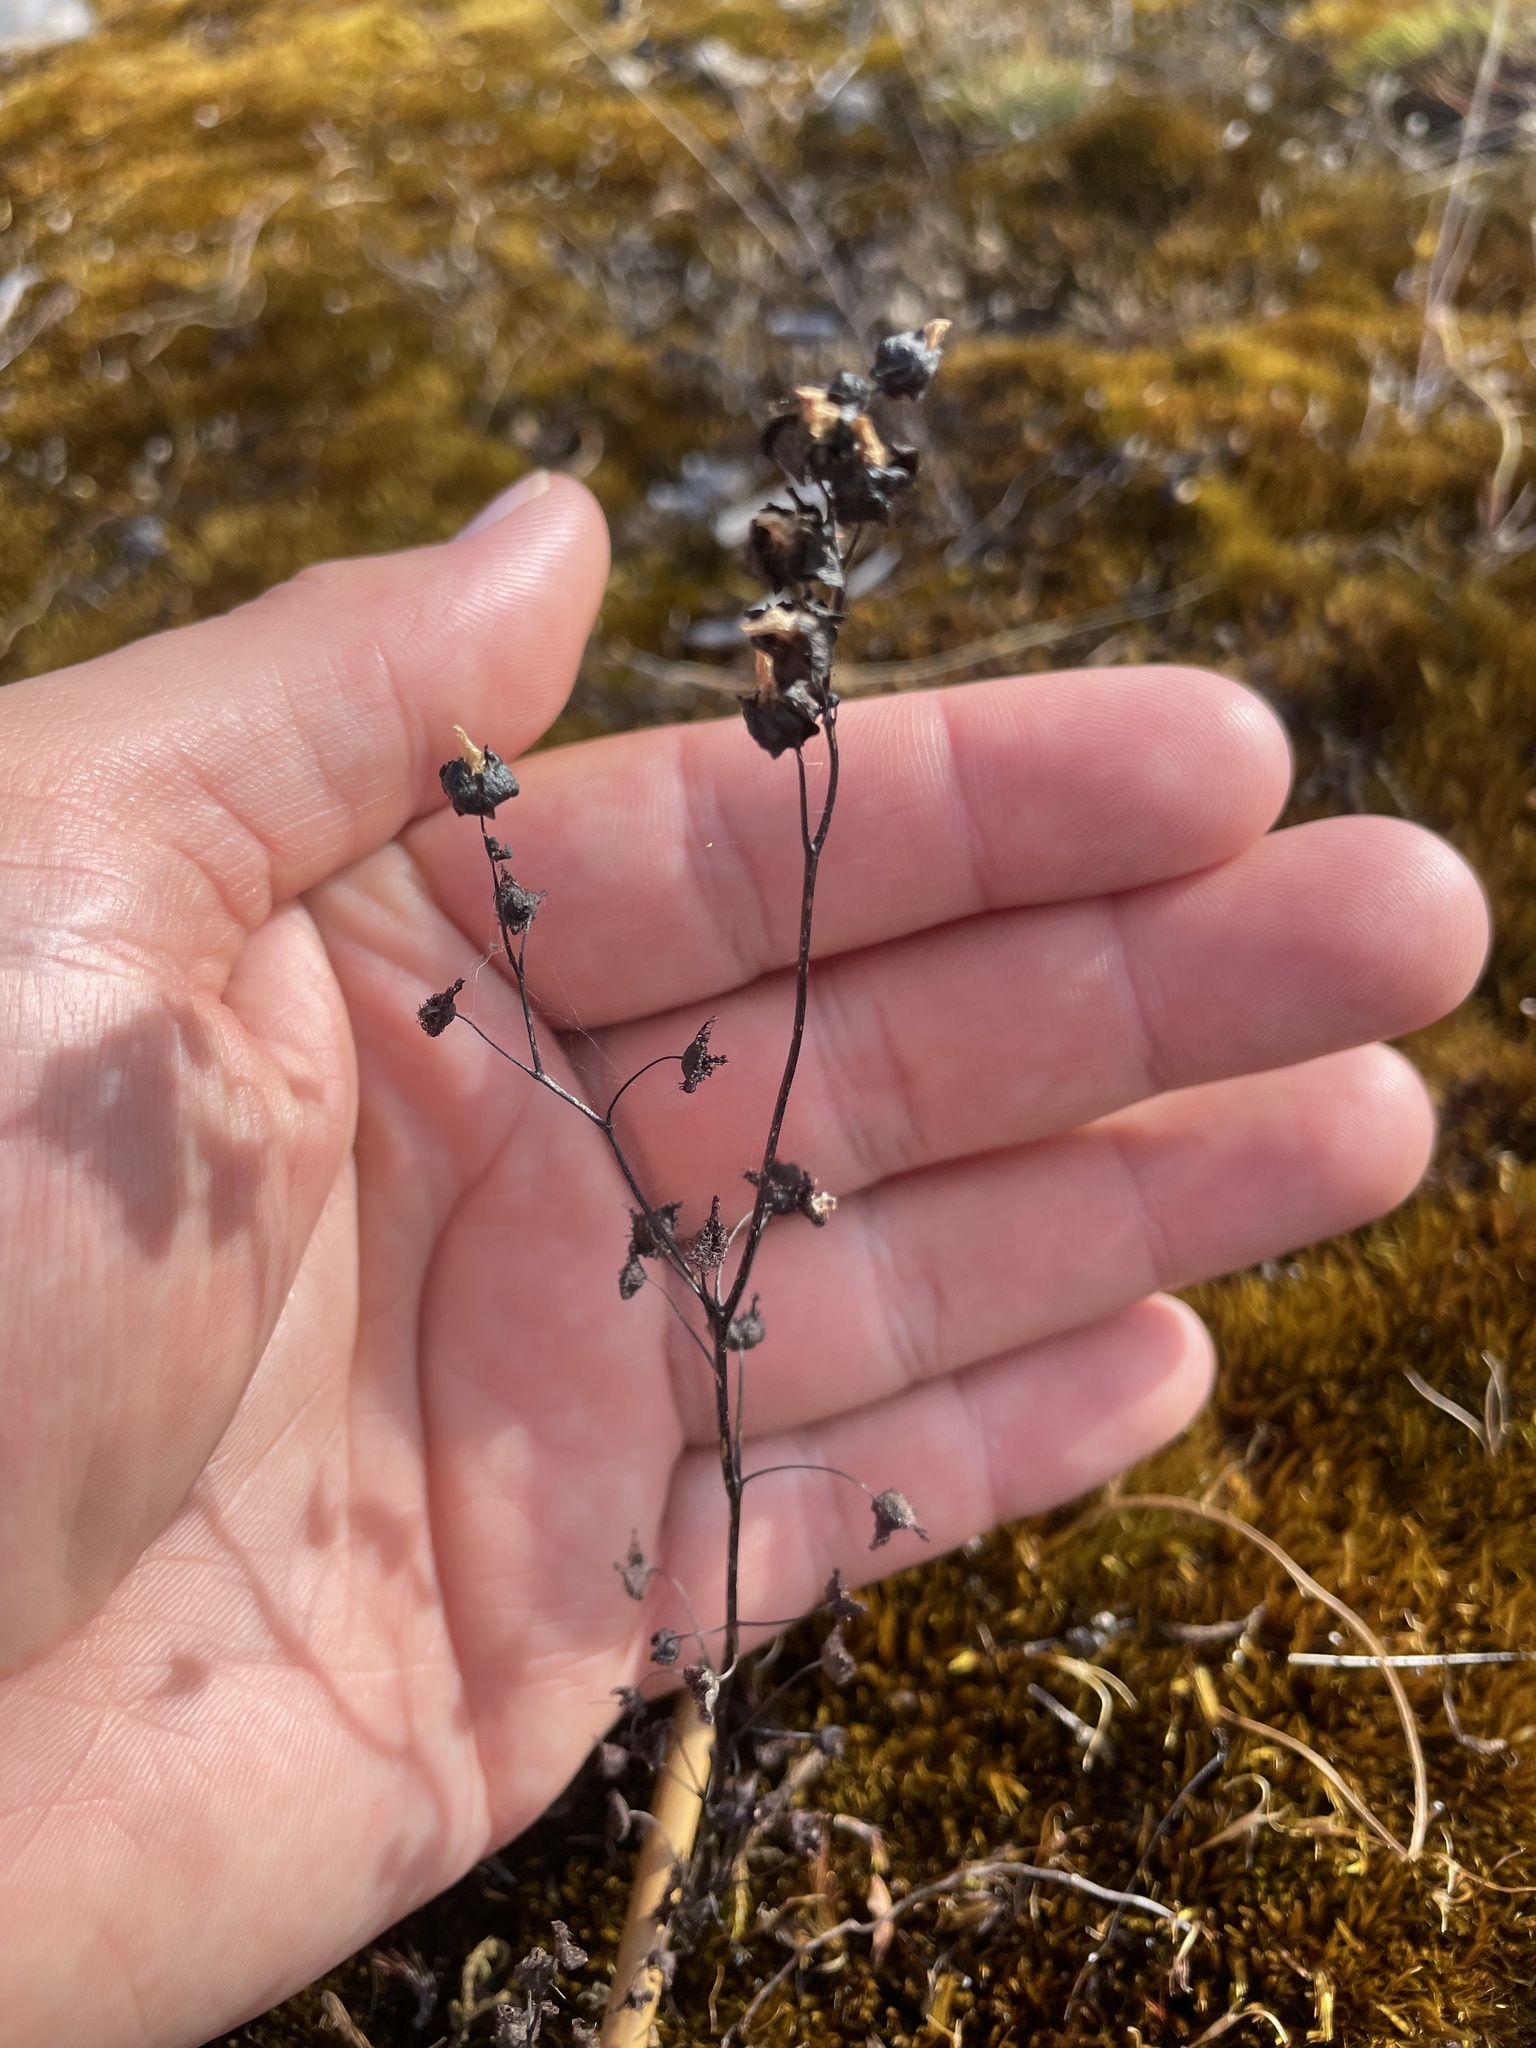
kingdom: Plantae
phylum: Tracheophyta
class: Magnoliopsida
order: Caryophyllales
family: Droseraceae
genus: Drosera
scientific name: Drosera peltata
